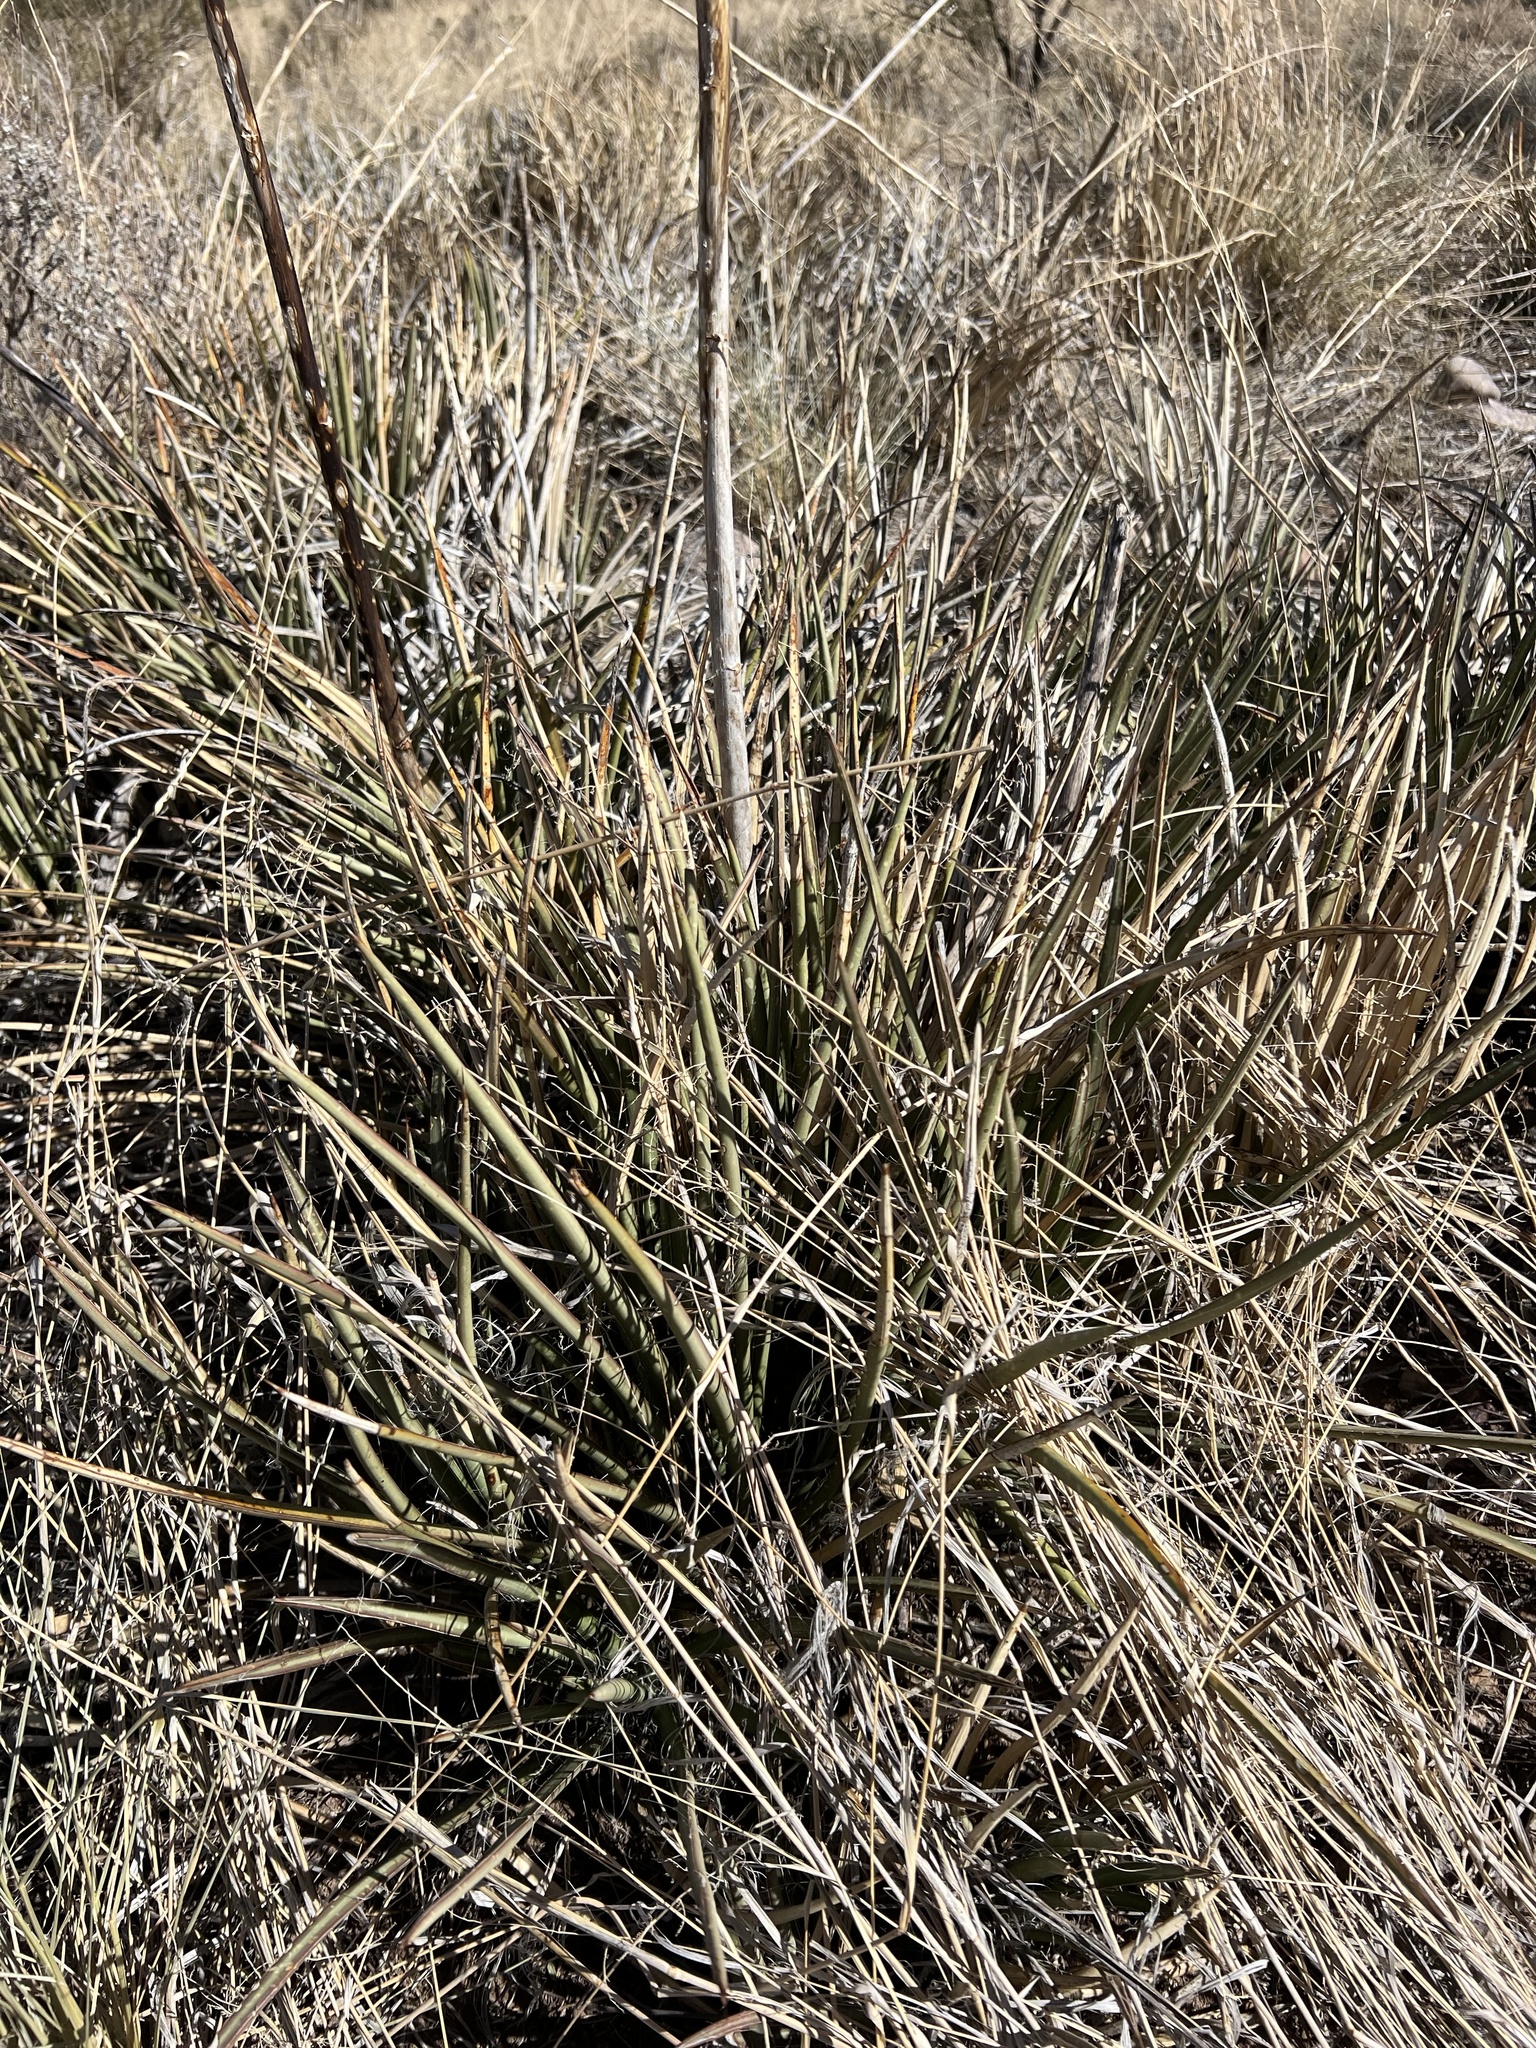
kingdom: Plantae
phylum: Tracheophyta
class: Liliopsida
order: Asparagales
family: Asparagaceae
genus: Agave
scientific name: Agave schottii
